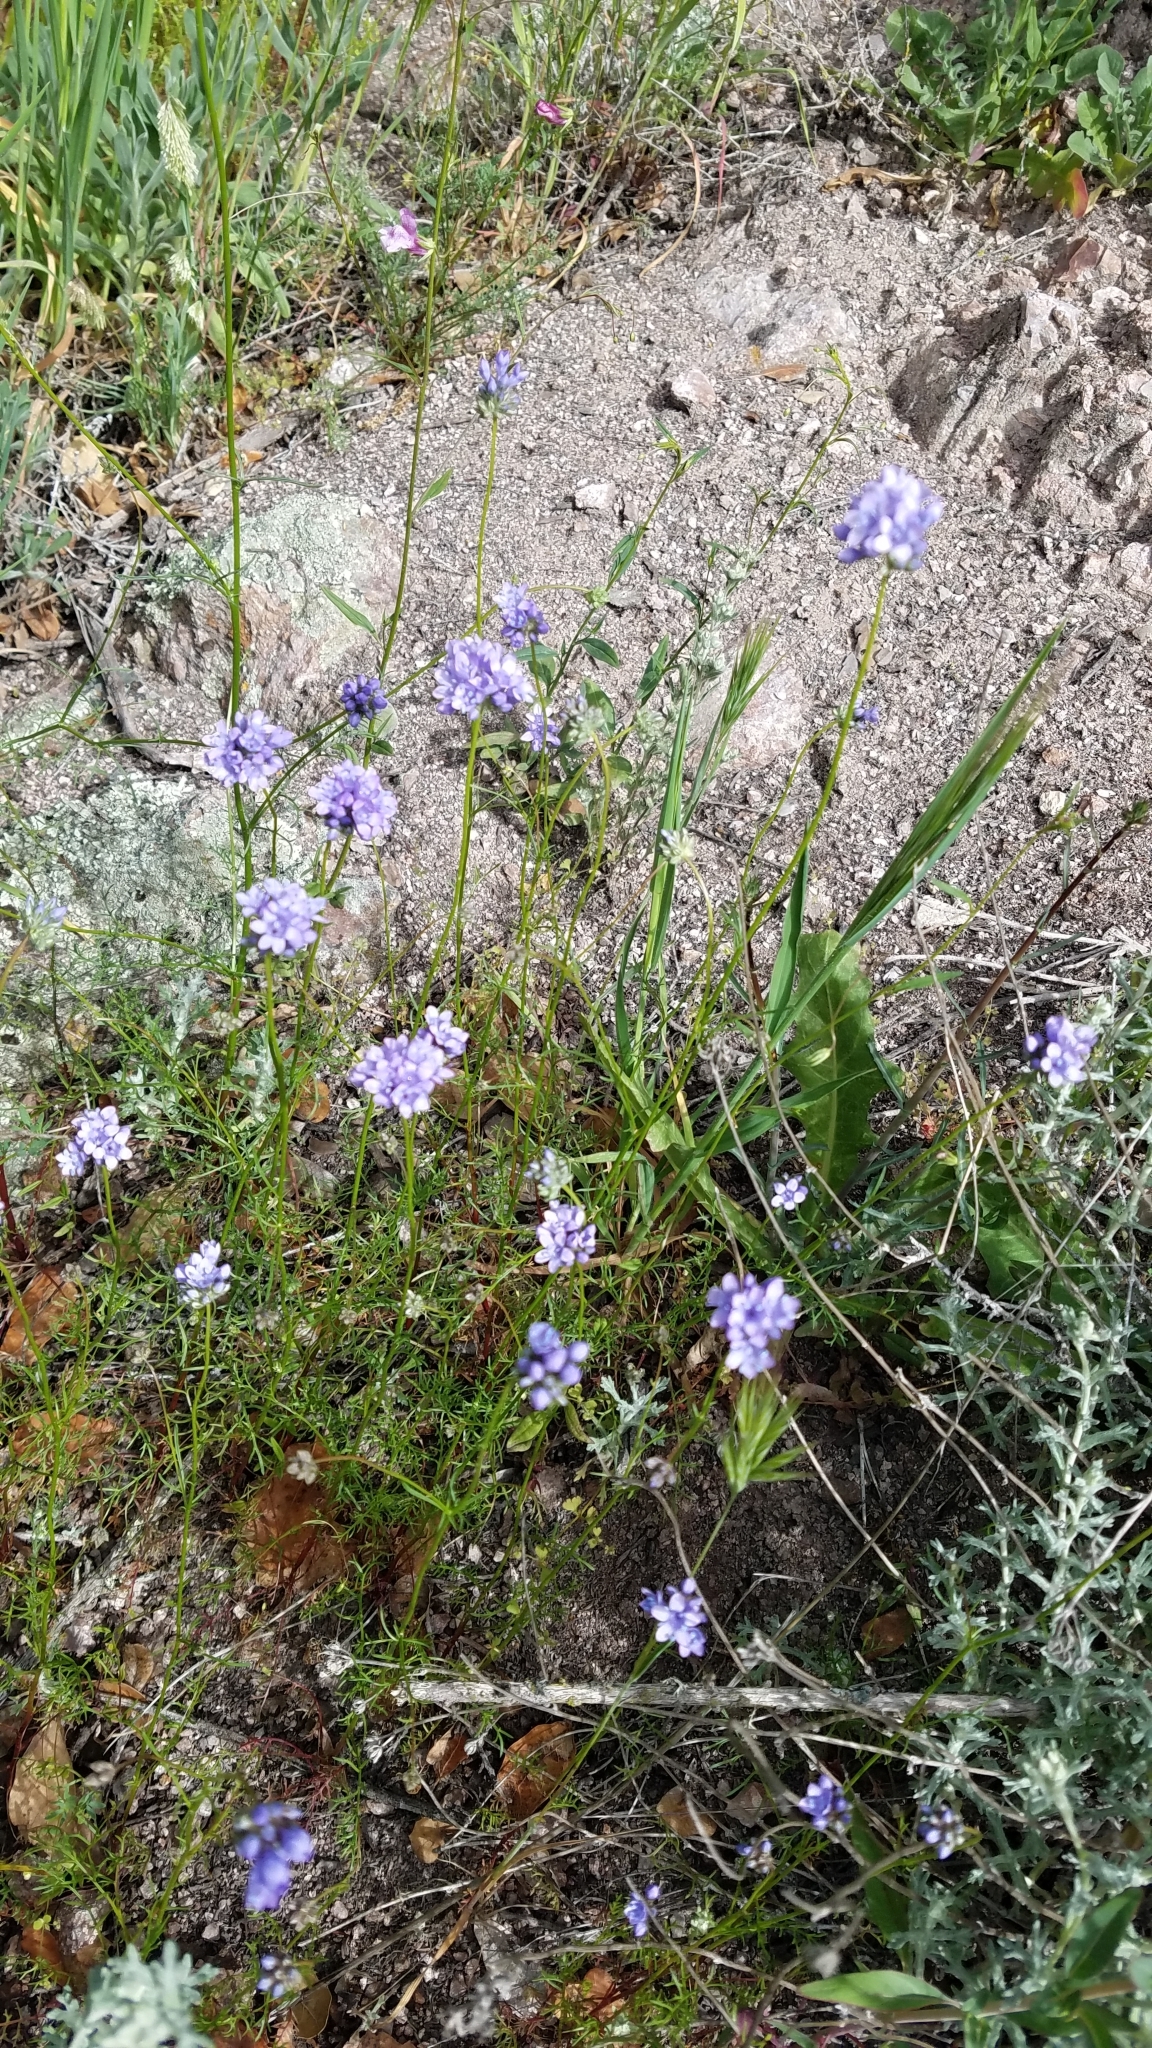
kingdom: Plantae
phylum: Tracheophyta
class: Magnoliopsida
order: Ericales
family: Polemoniaceae
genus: Gilia
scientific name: Gilia achilleifolia
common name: California gily-flower
